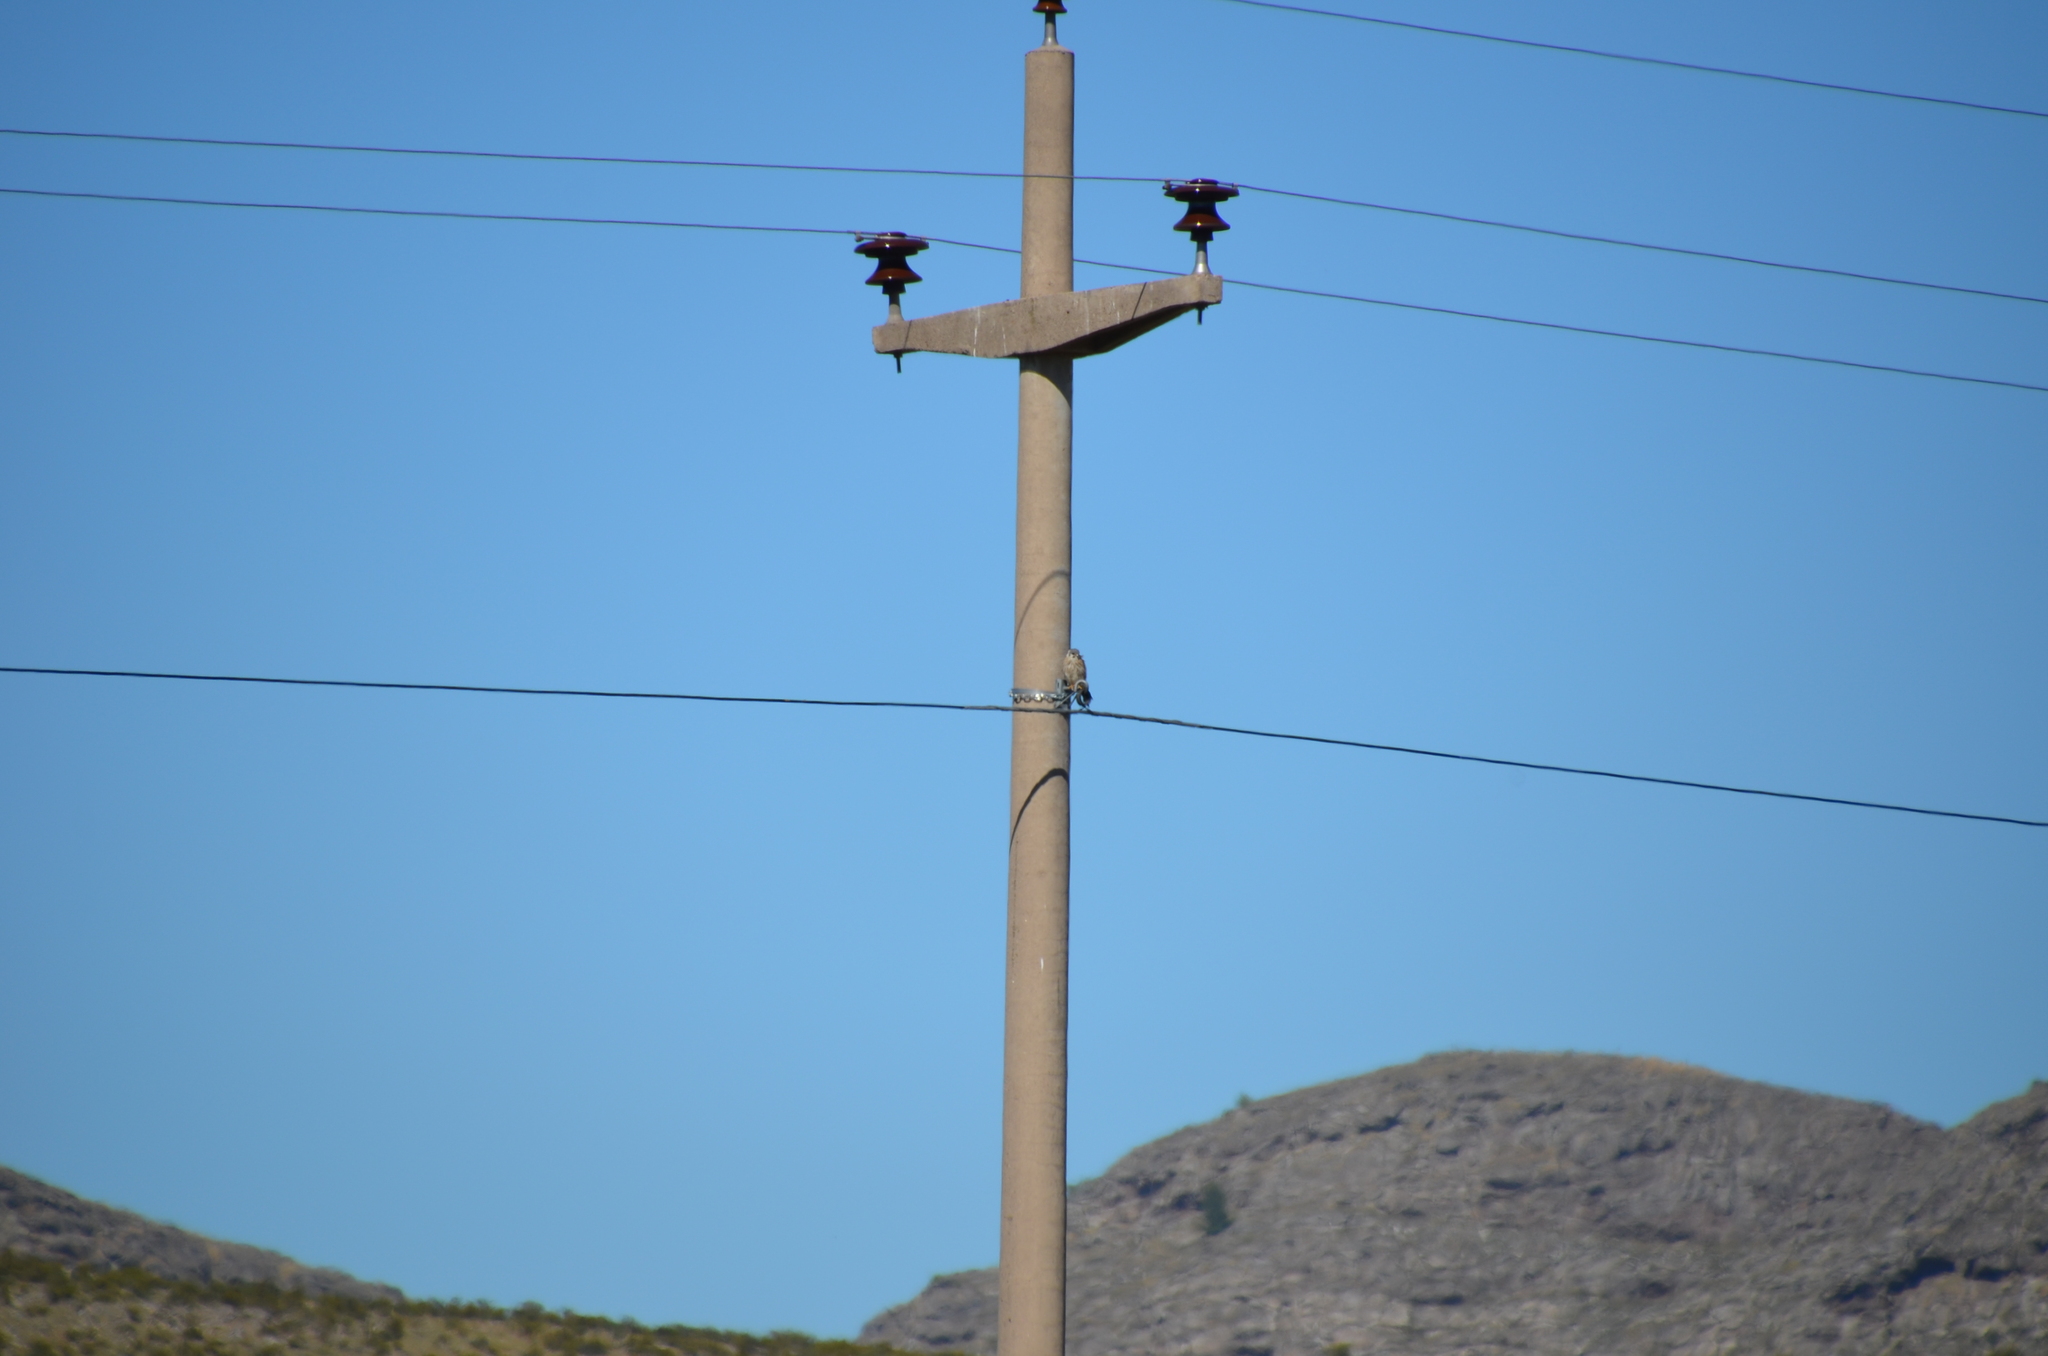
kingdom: Animalia
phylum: Chordata
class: Aves
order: Falconiformes
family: Falconidae
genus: Falco
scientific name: Falco sparverius
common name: American kestrel
